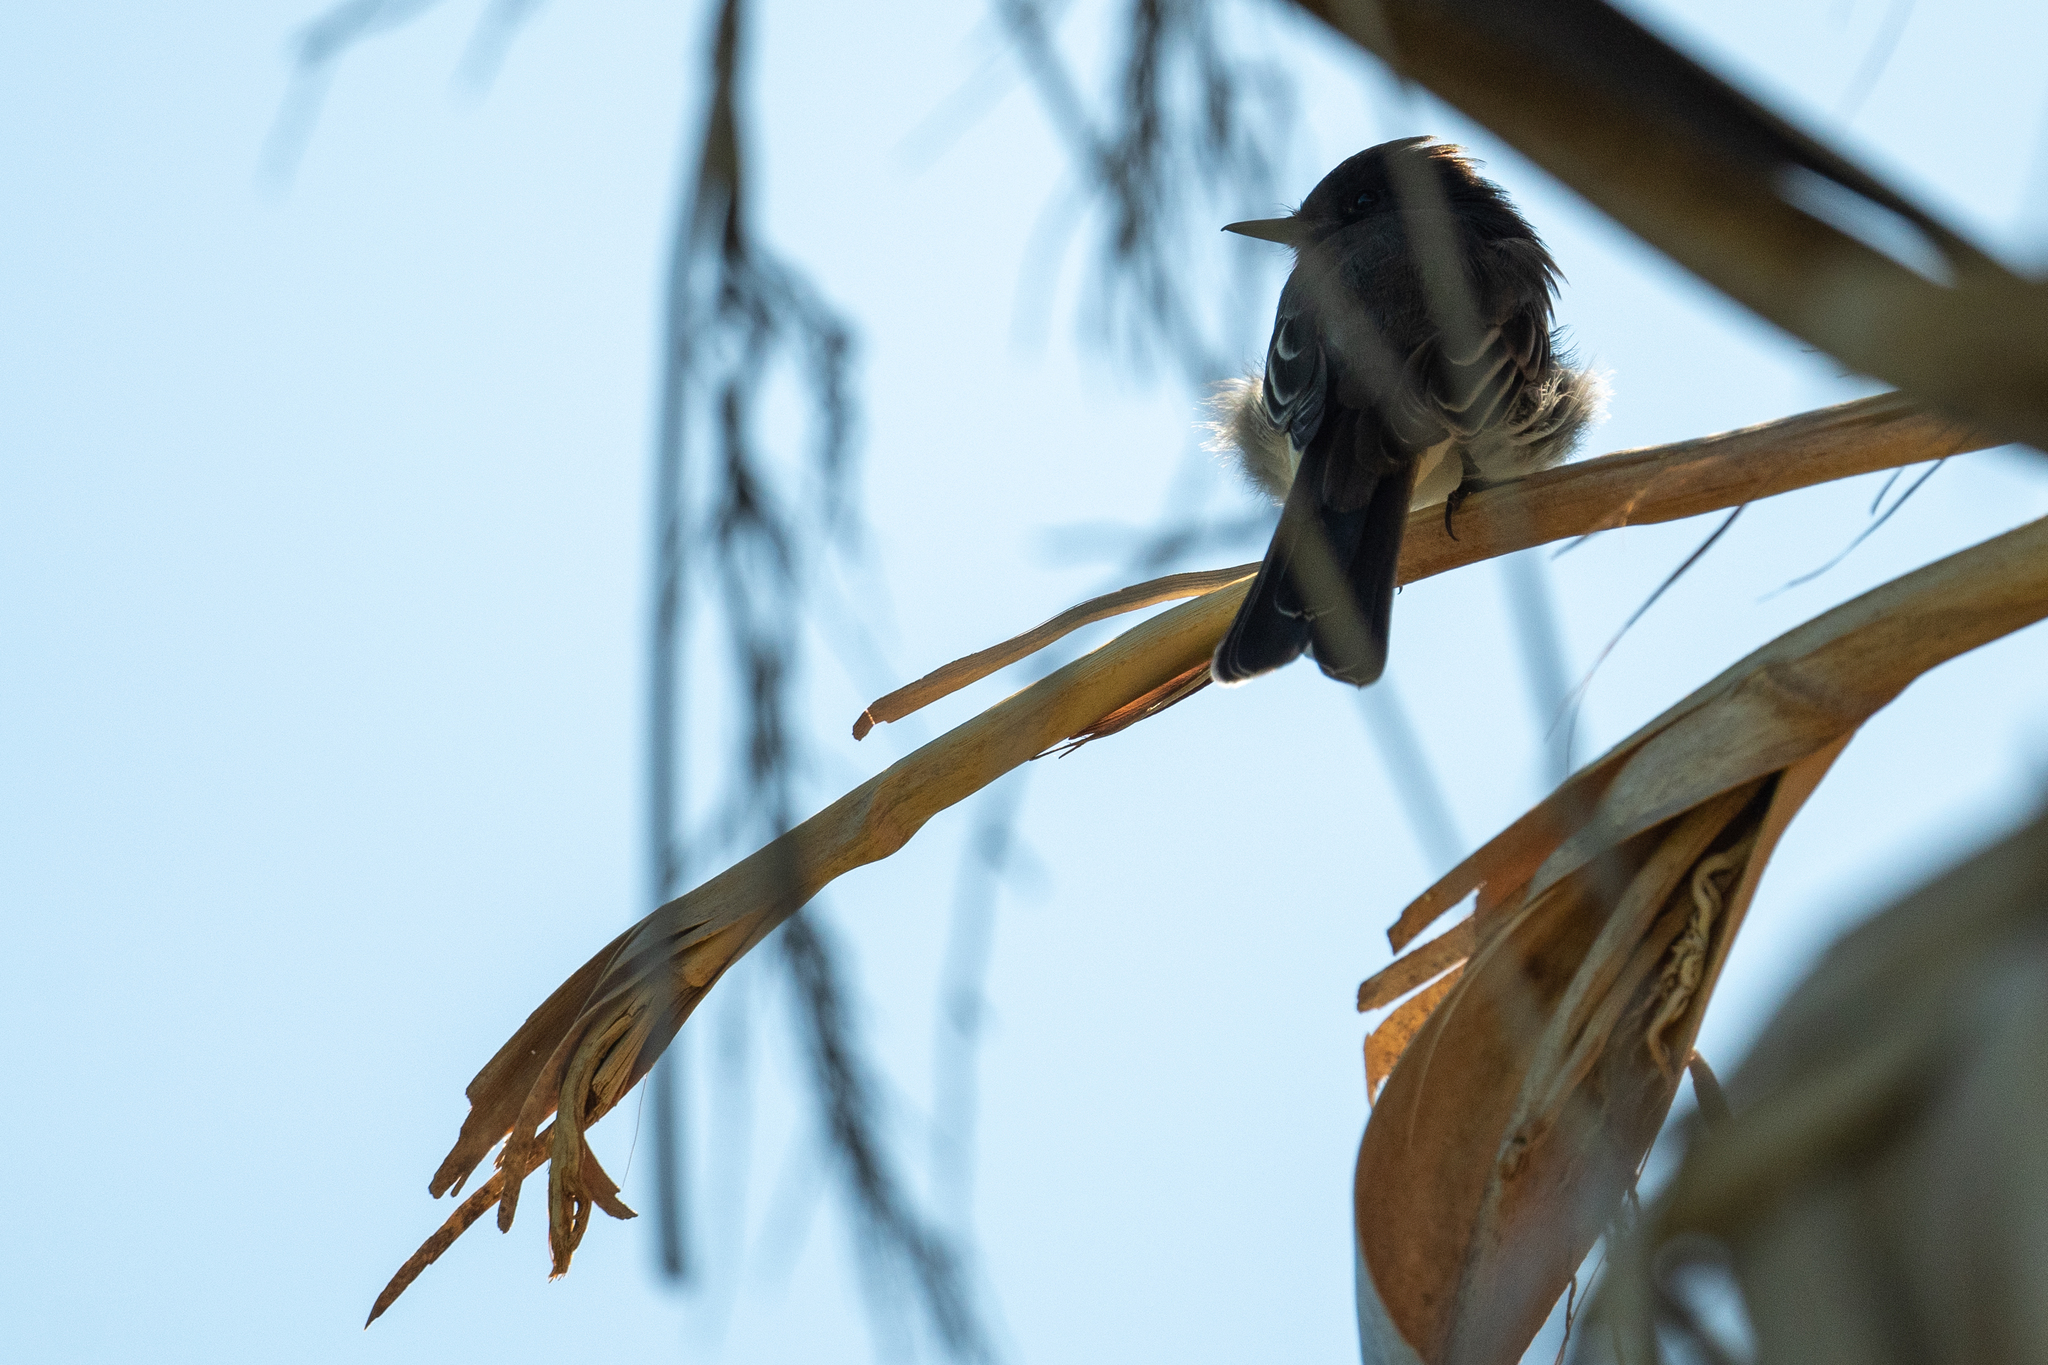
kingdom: Animalia
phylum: Chordata
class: Aves
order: Passeriformes
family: Tyrannidae
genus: Sayornis
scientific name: Sayornis nigricans
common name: Black phoebe
